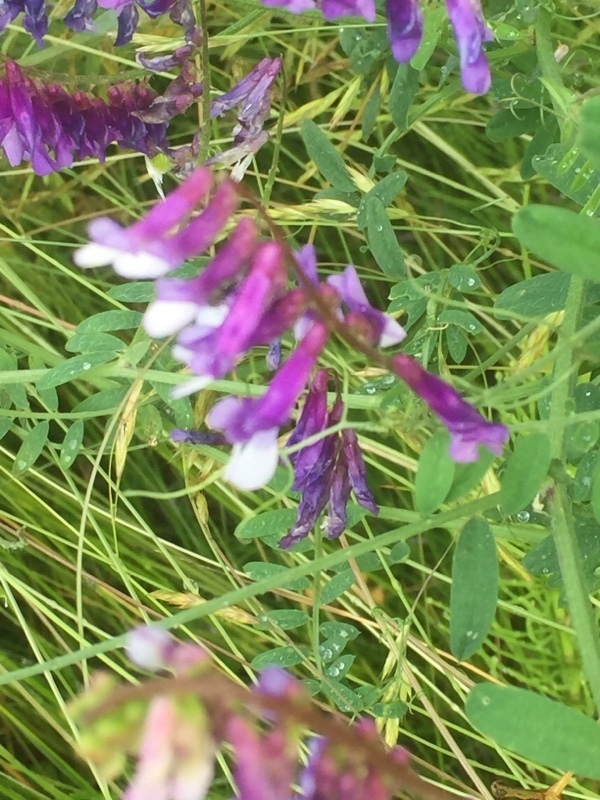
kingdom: Plantae
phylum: Tracheophyta
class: Magnoliopsida
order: Fabales
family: Fabaceae
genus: Vicia
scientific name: Vicia villosa
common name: Fodder vetch
